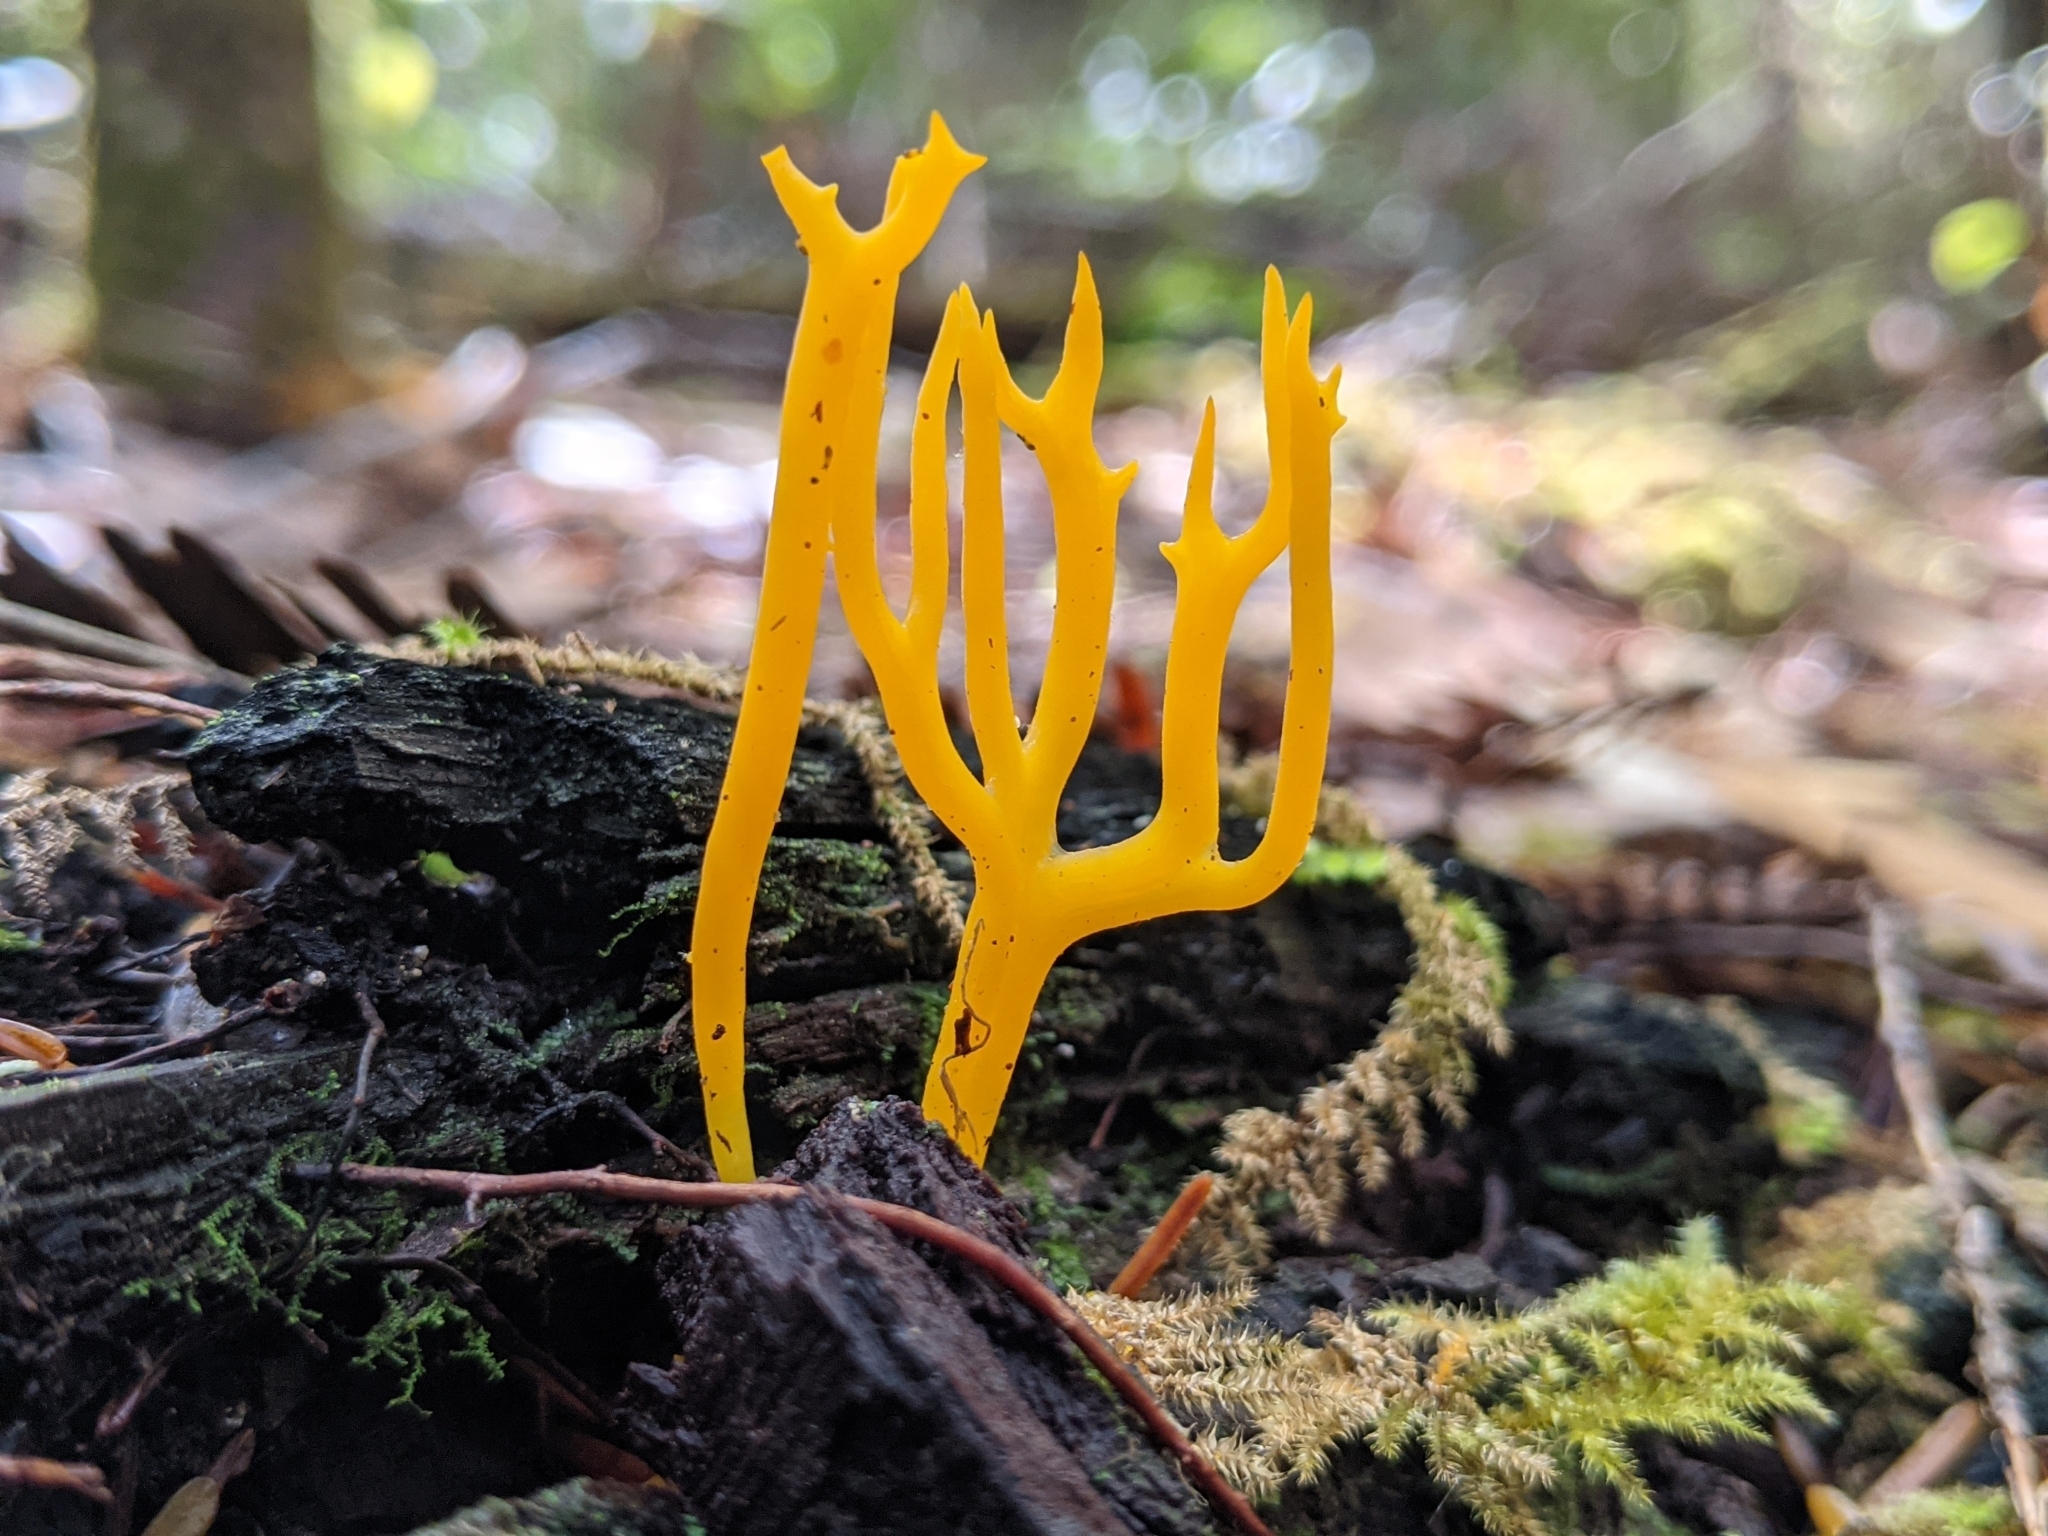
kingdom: Fungi
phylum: Basidiomycota
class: Dacrymycetes
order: Dacrymycetales
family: Dacrymycetaceae
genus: Calocera
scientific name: Calocera viscosa
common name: Yellow stagshorn
